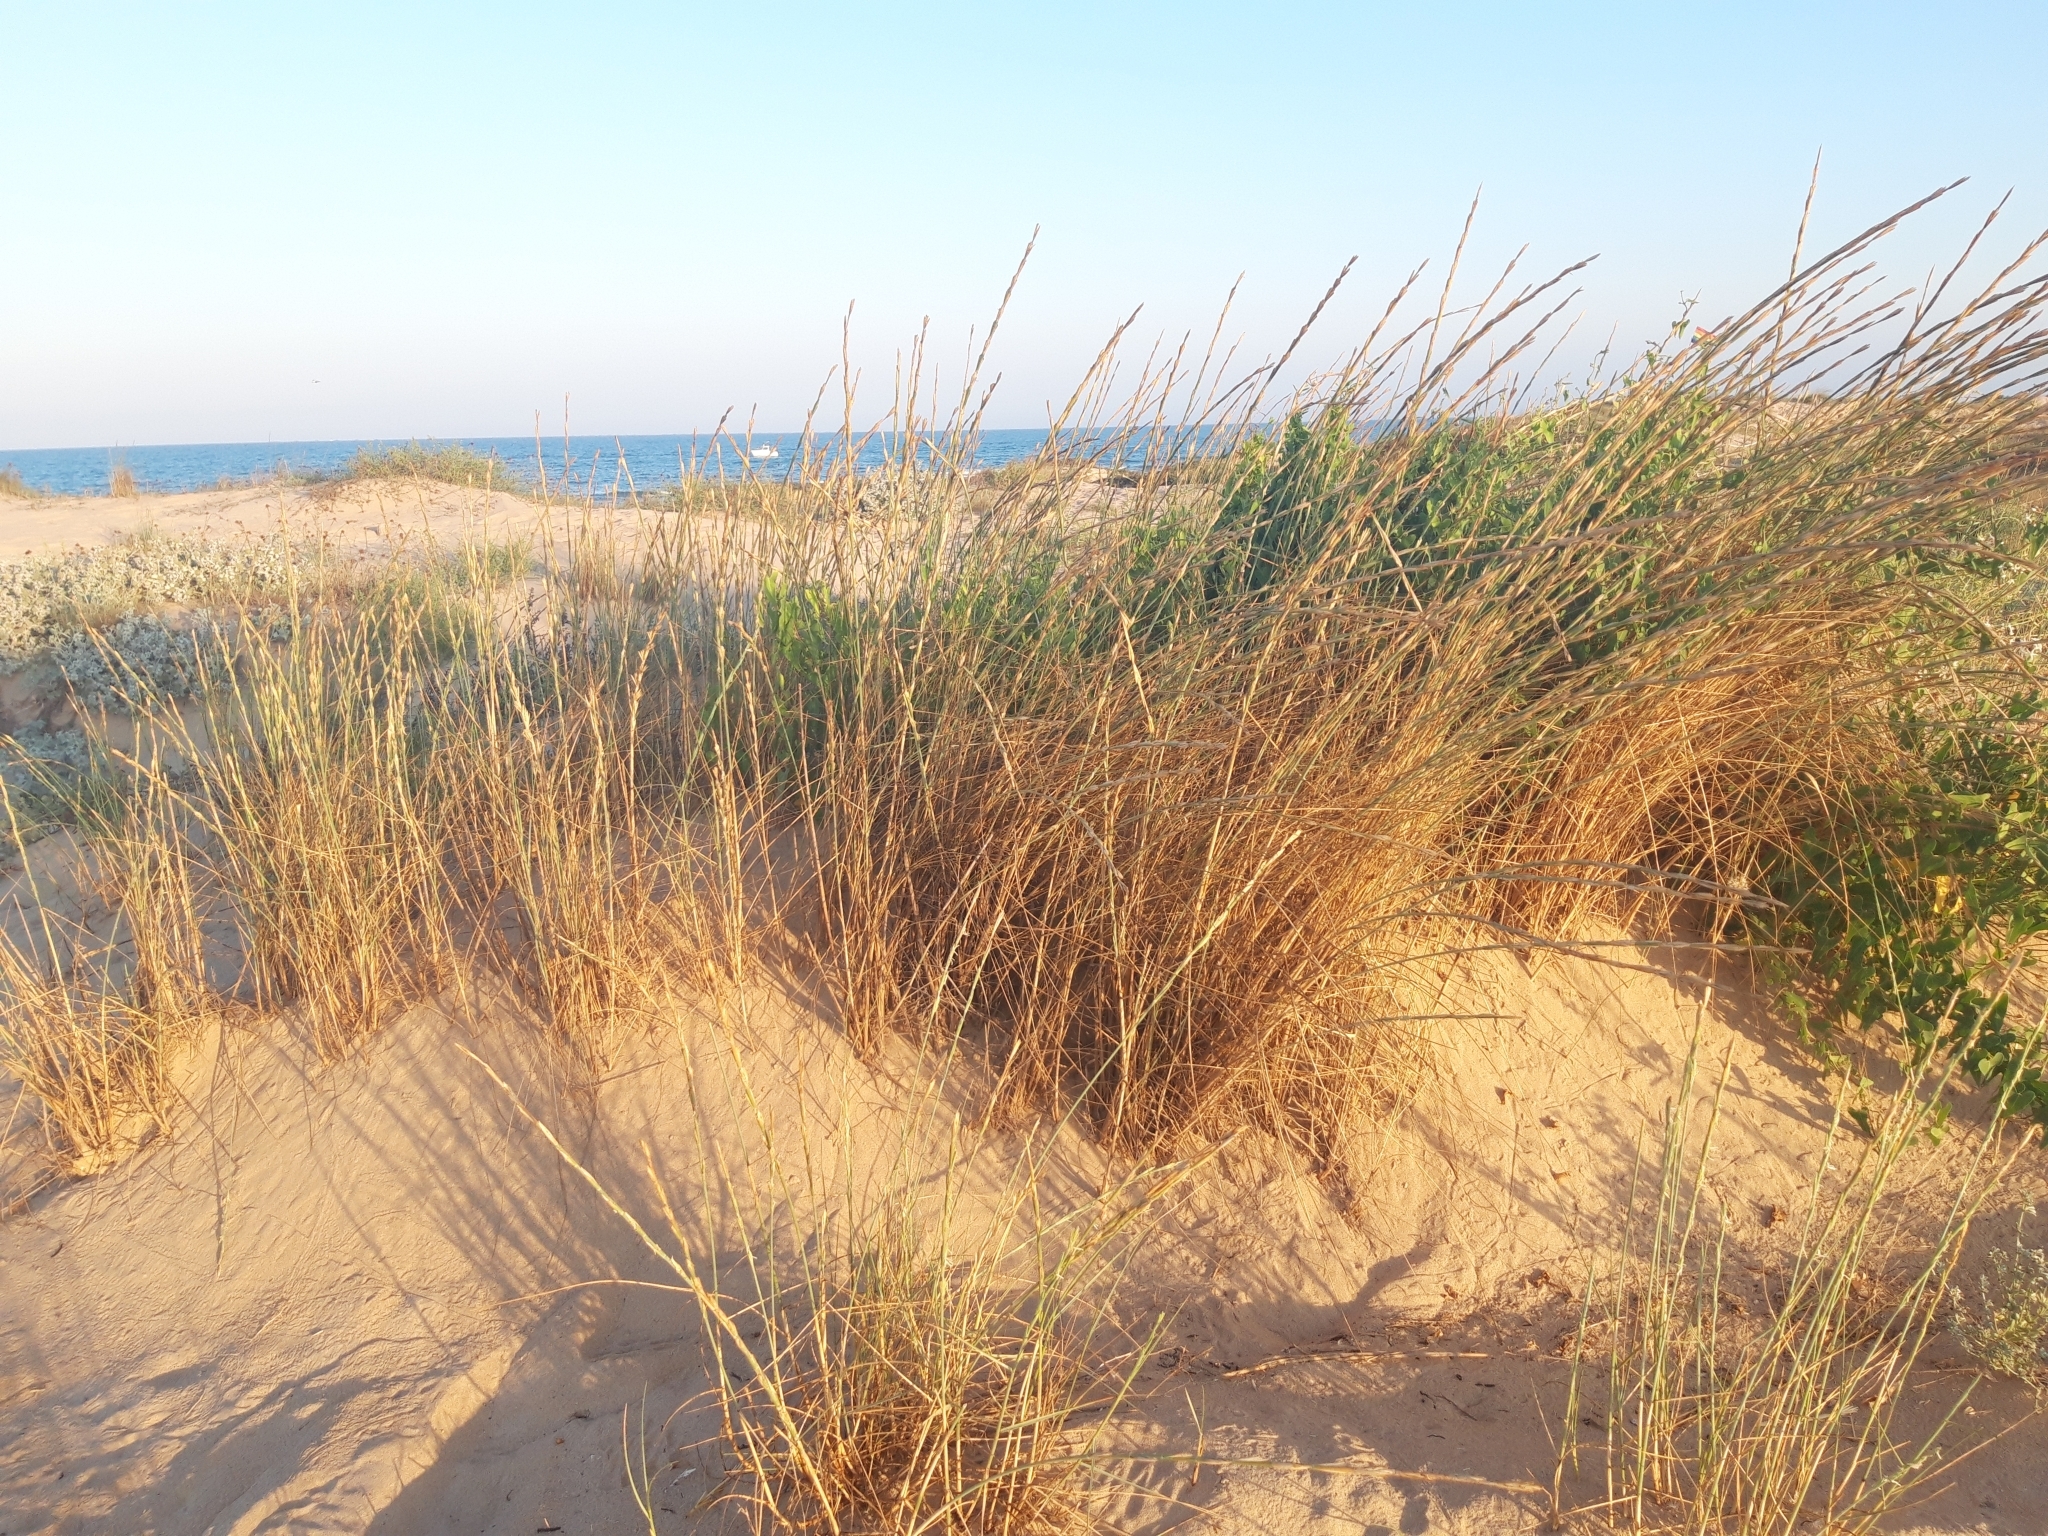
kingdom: Plantae
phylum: Tracheophyta
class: Liliopsida
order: Poales
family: Poaceae
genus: Thinopyrum
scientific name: Thinopyrum junceum
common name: Russian wheatgrass
